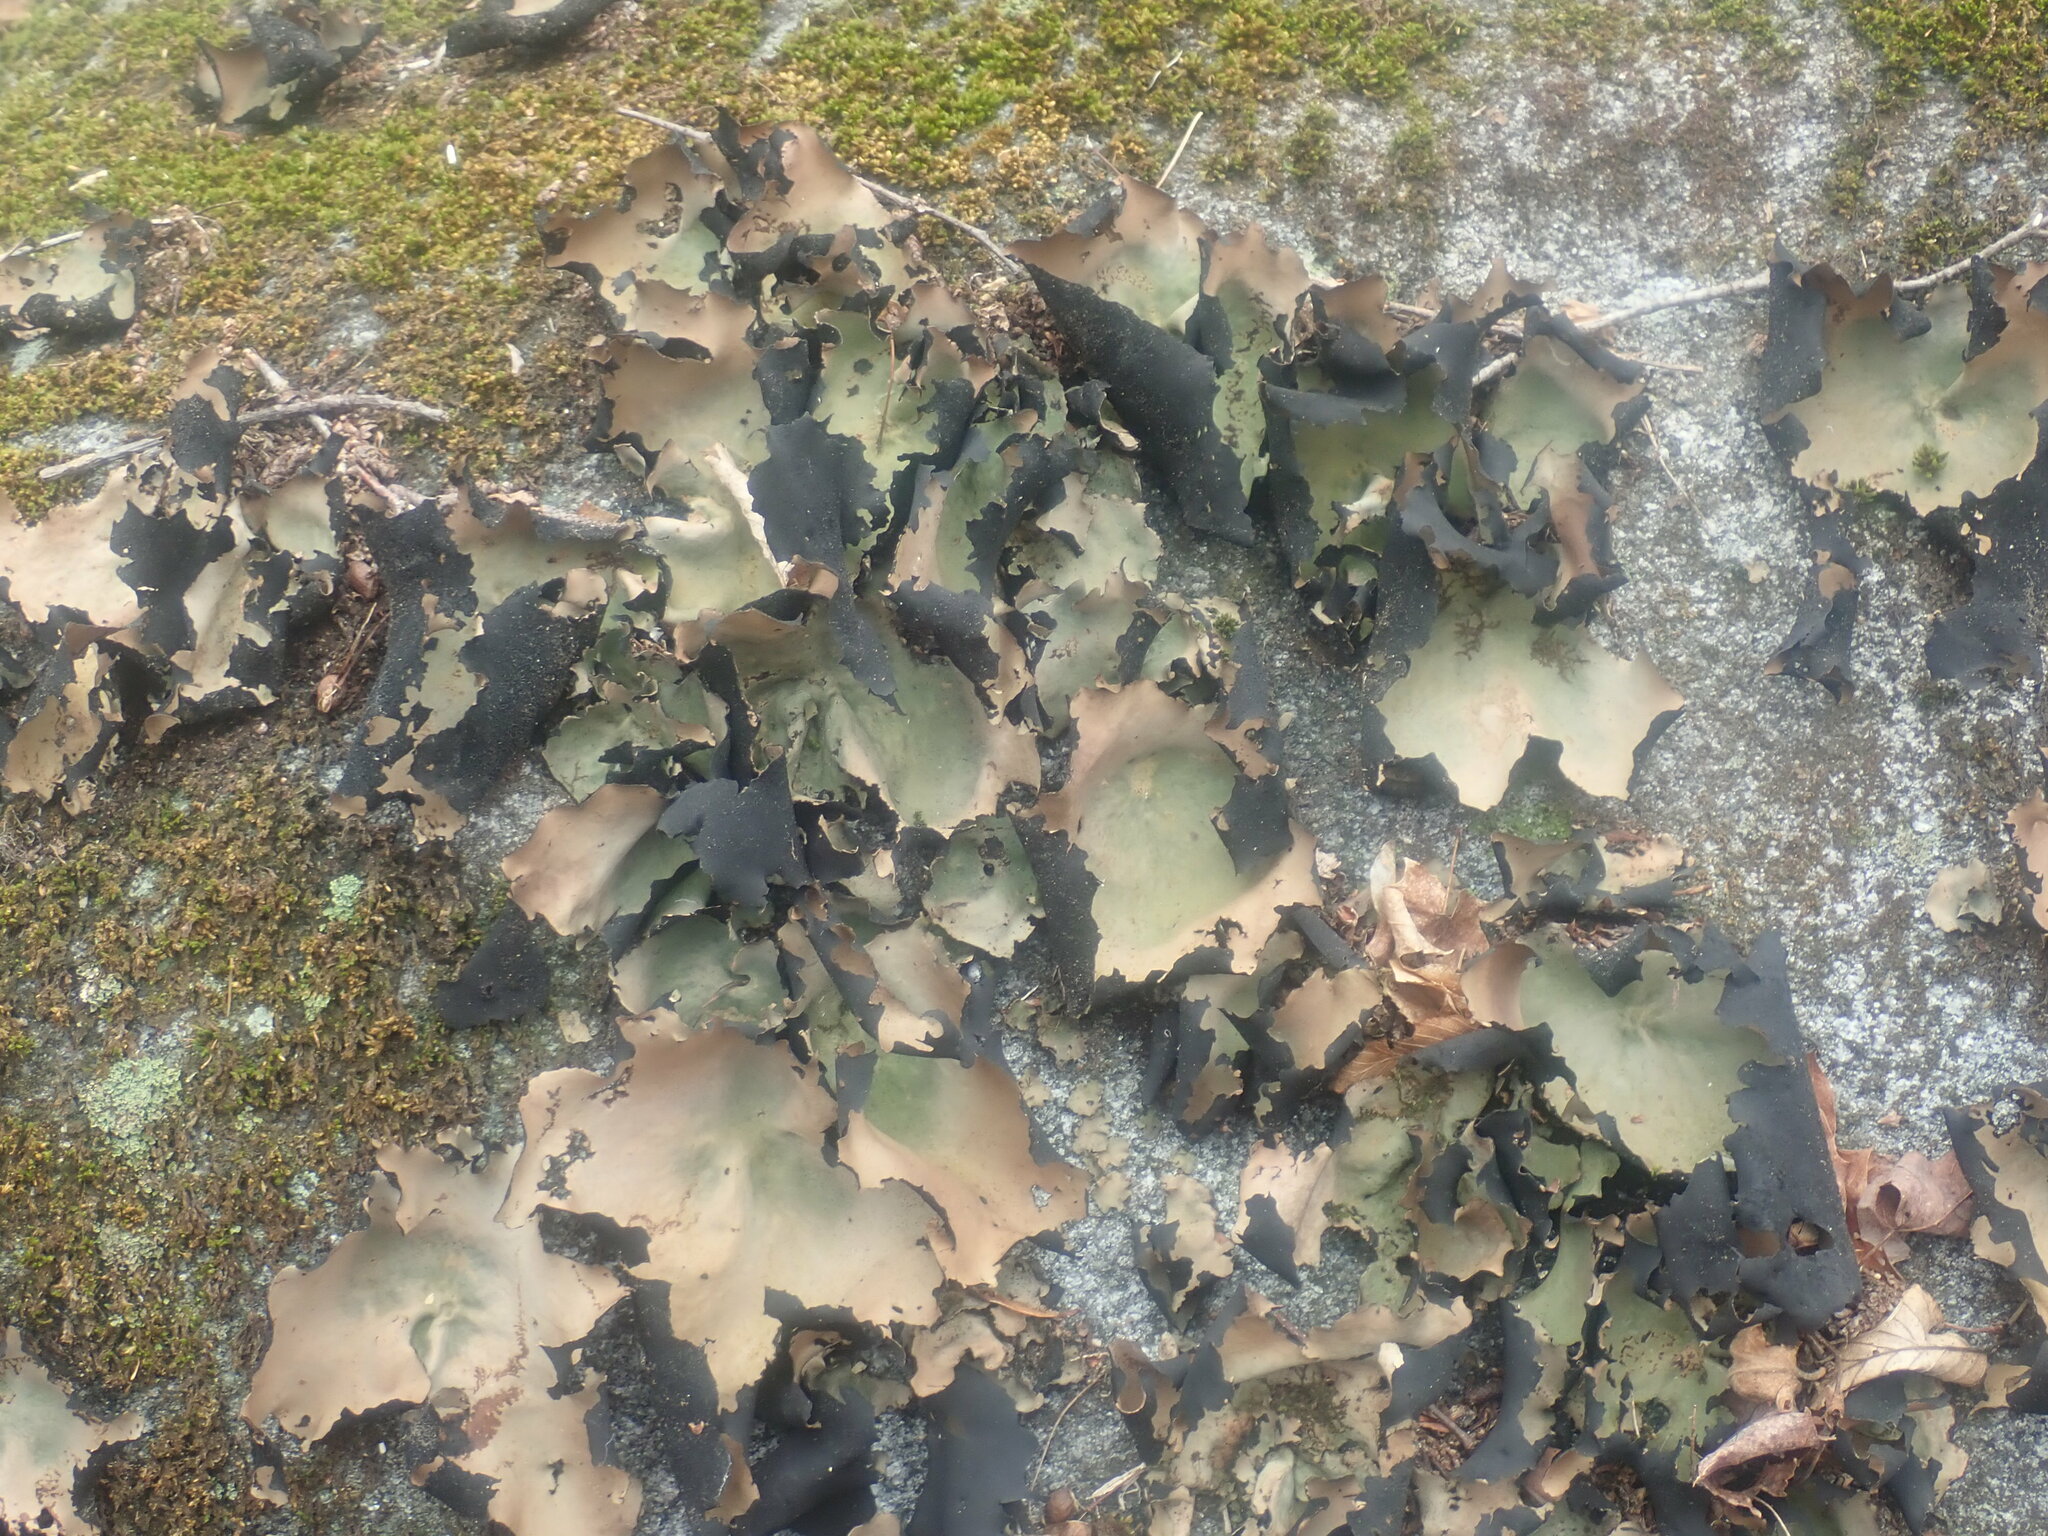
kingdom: Fungi
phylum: Ascomycota
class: Lecanoromycetes
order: Umbilicariales
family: Umbilicariaceae
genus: Umbilicaria
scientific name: Umbilicaria mammulata
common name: Smooth rock tripe
